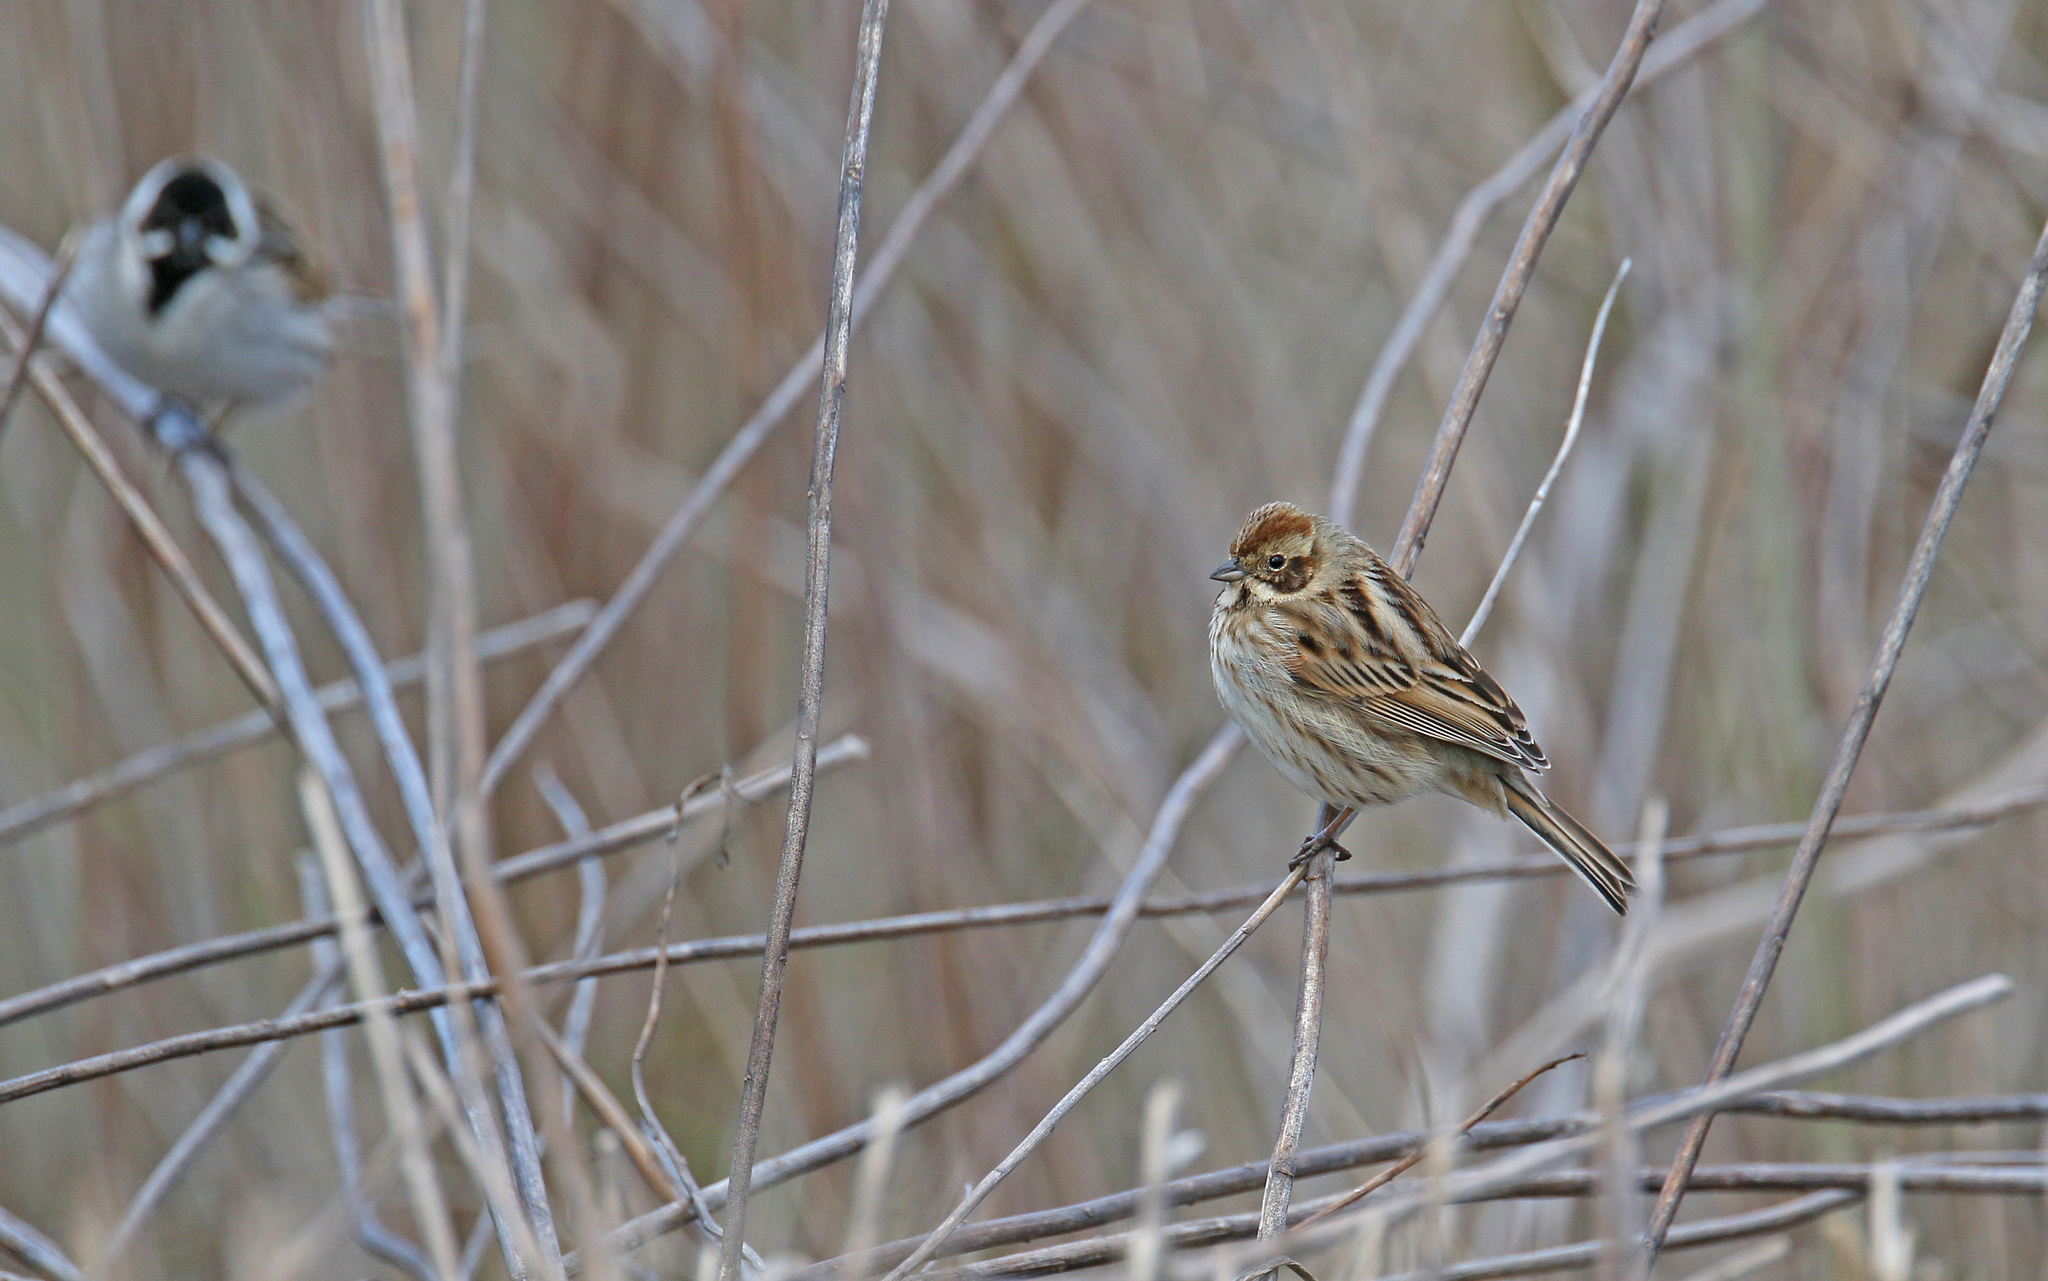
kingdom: Animalia
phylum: Chordata
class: Aves
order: Passeriformes
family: Emberizidae
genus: Emberiza
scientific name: Emberiza schoeniclus
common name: Reed bunting
